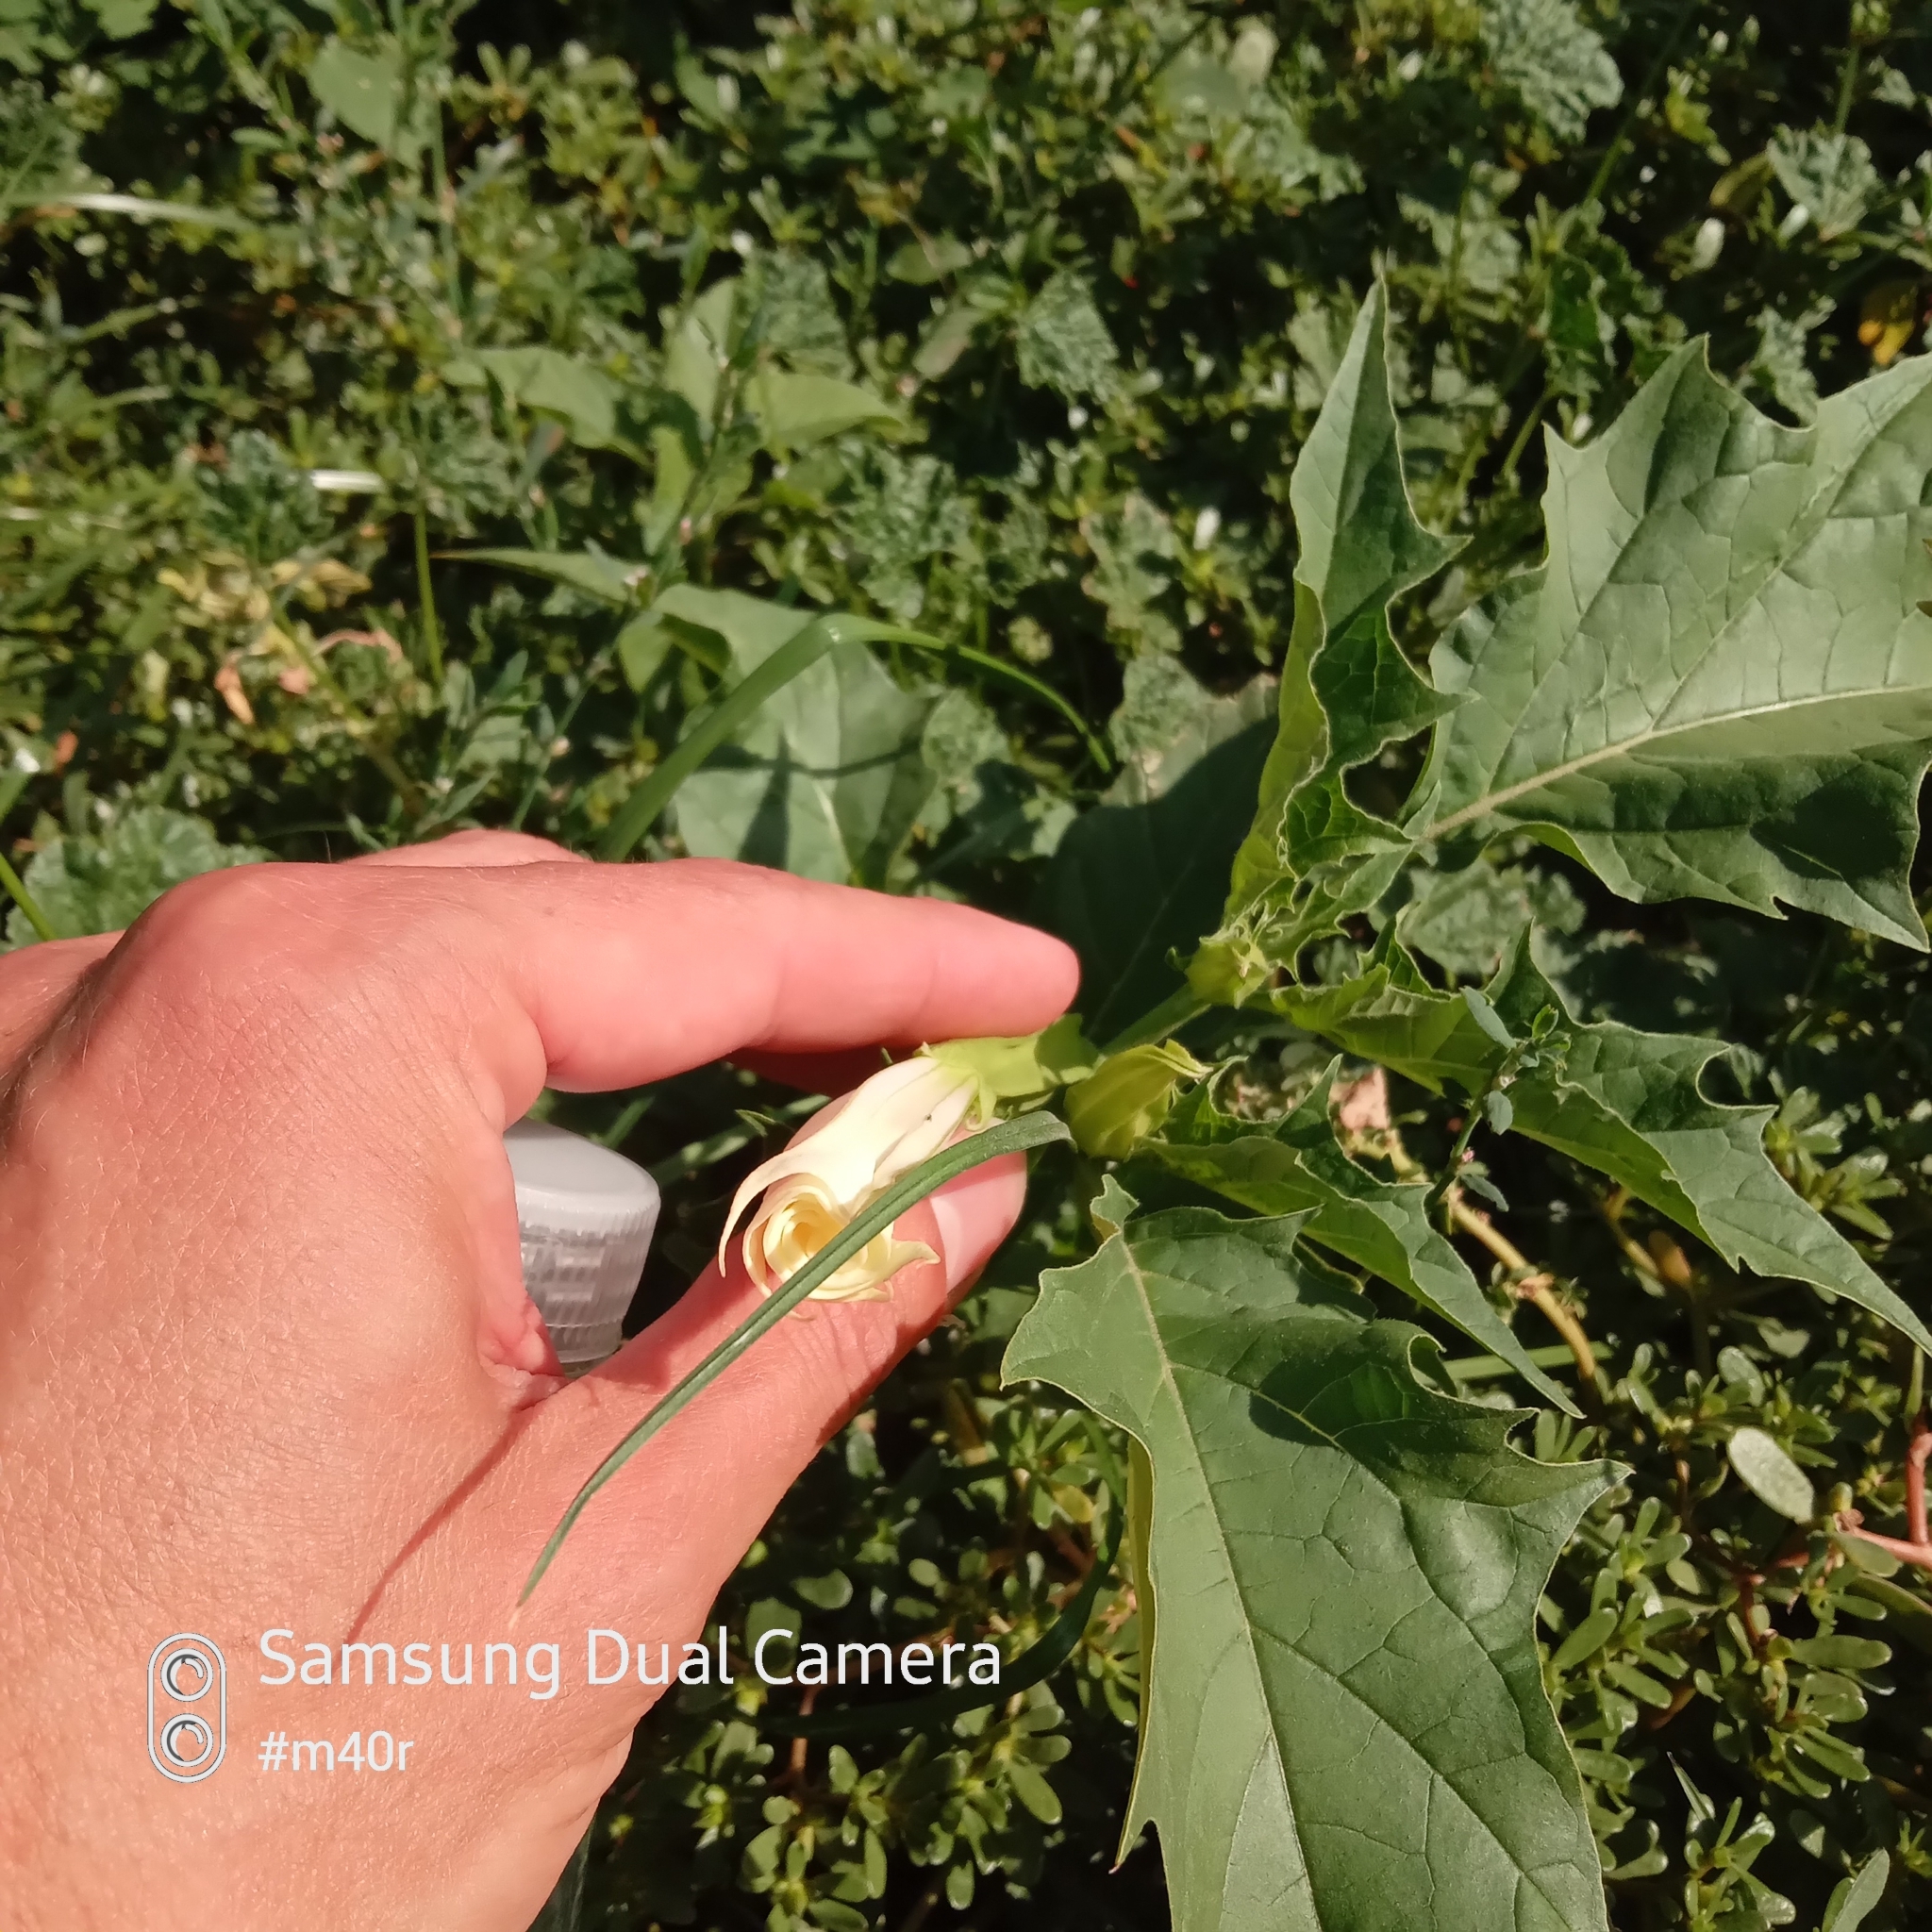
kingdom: Plantae
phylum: Tracheophyta
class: Magnoliopsida
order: Solanales
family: Solanaceae
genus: Datura
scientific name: Datura stramonium
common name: Thorn-apple
